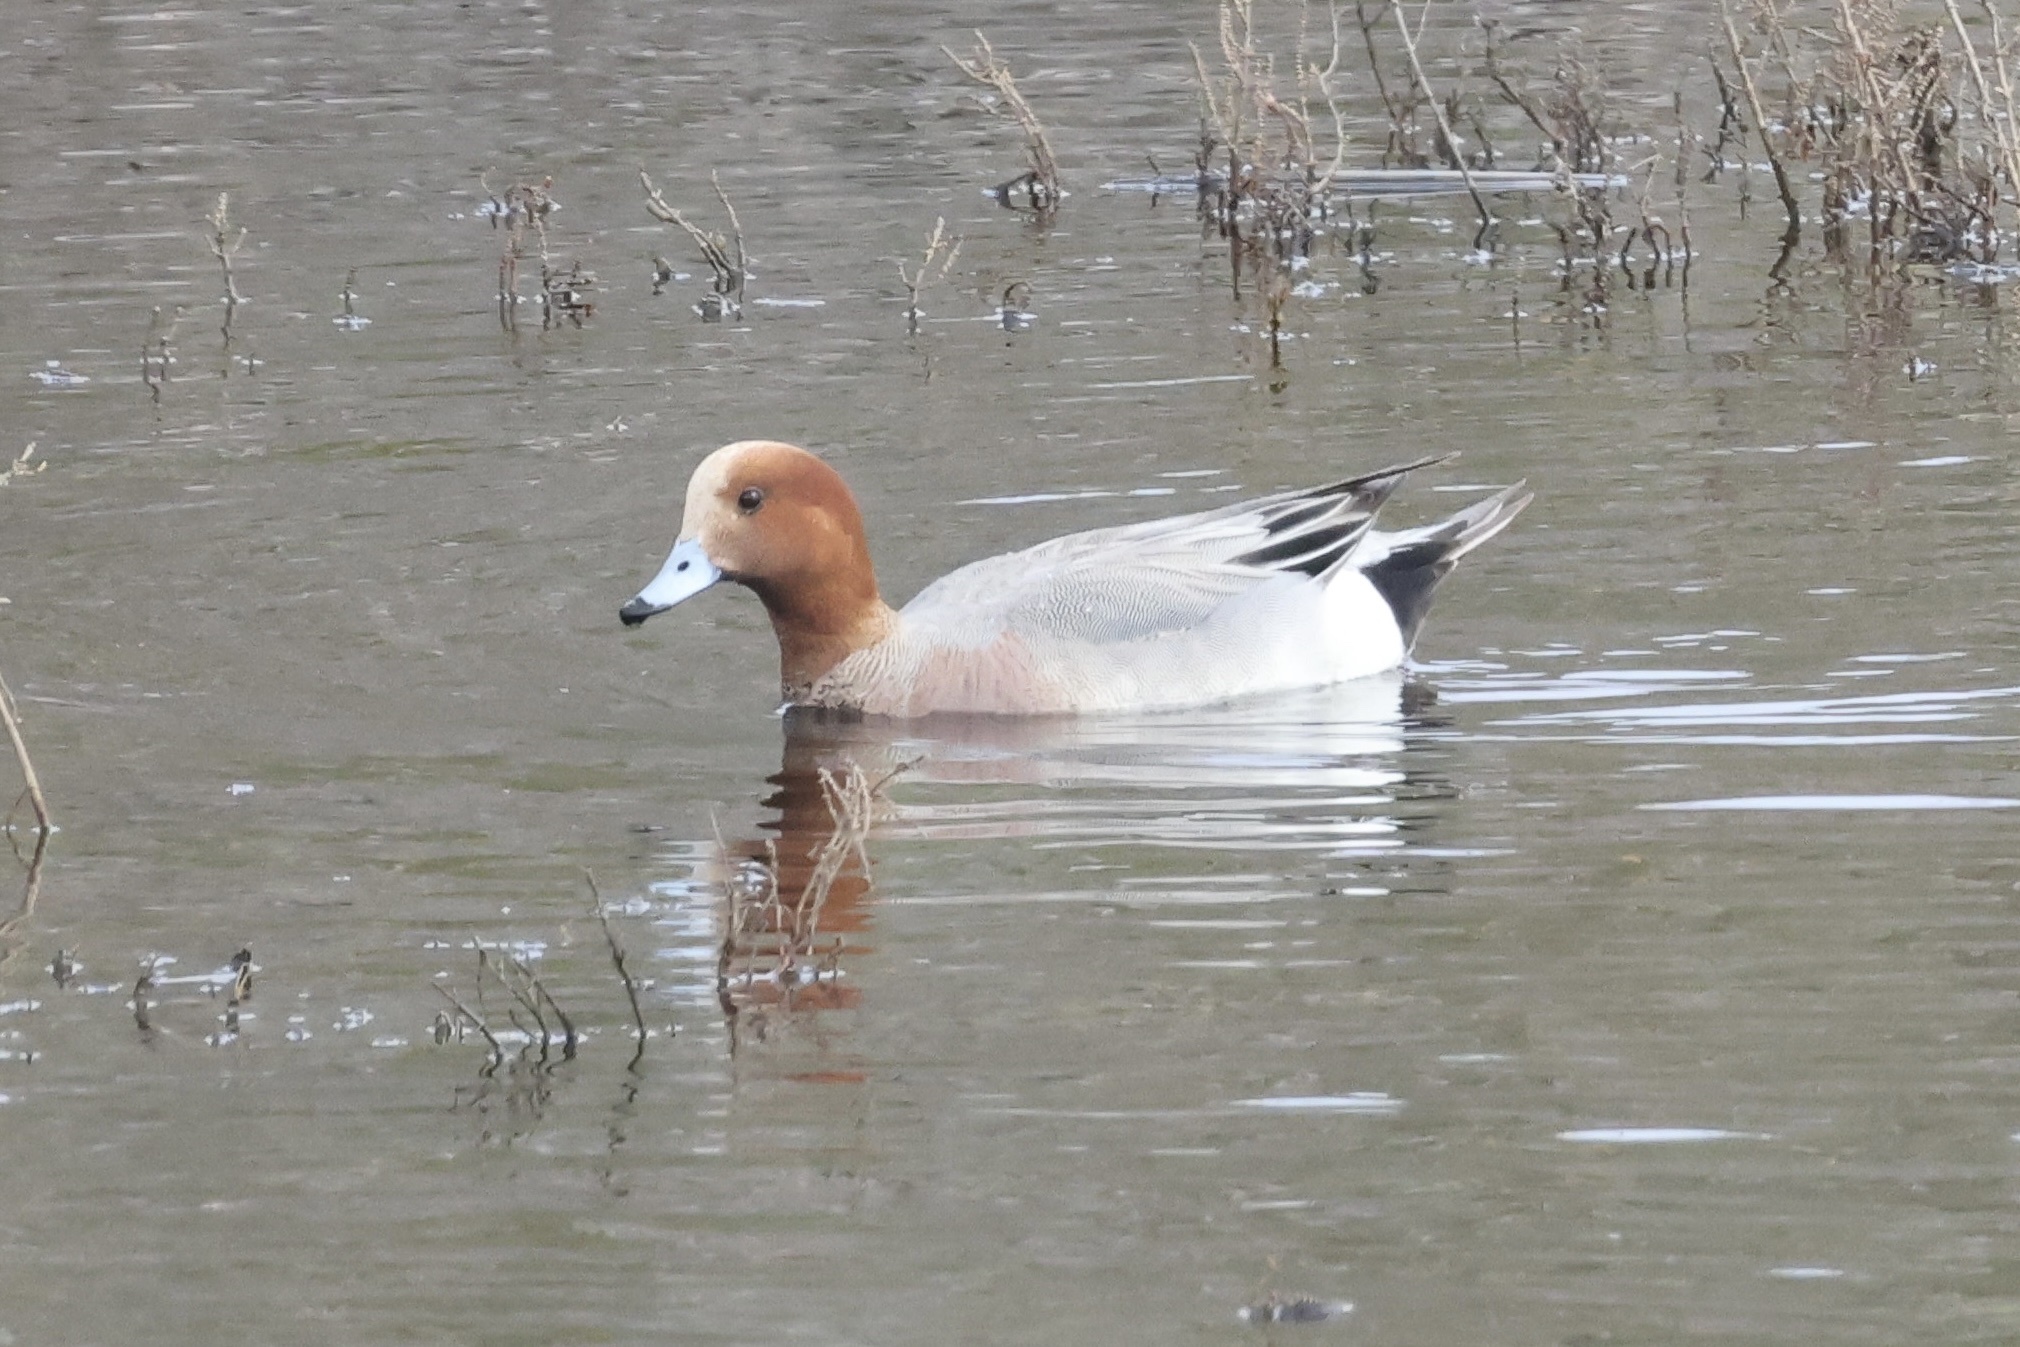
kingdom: Animalia
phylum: Chordata
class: Aves
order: Anseriformes
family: Anatidae
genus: Mareca
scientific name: Mareca penelope
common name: Eurasian wigeon
